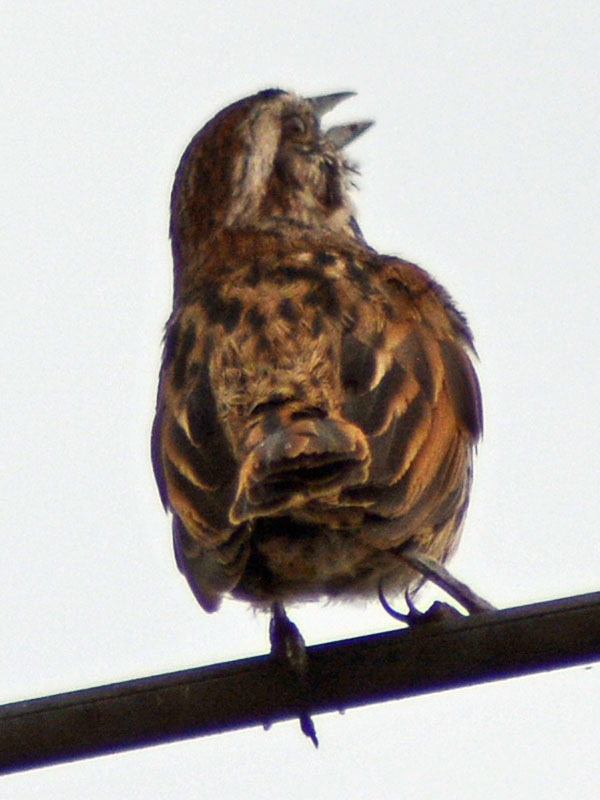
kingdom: Animalia
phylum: Chordata
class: Aves
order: Passeriformes
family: Passerellidae
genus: Melospiza
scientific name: Melospiza melodia
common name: Song sparrow
